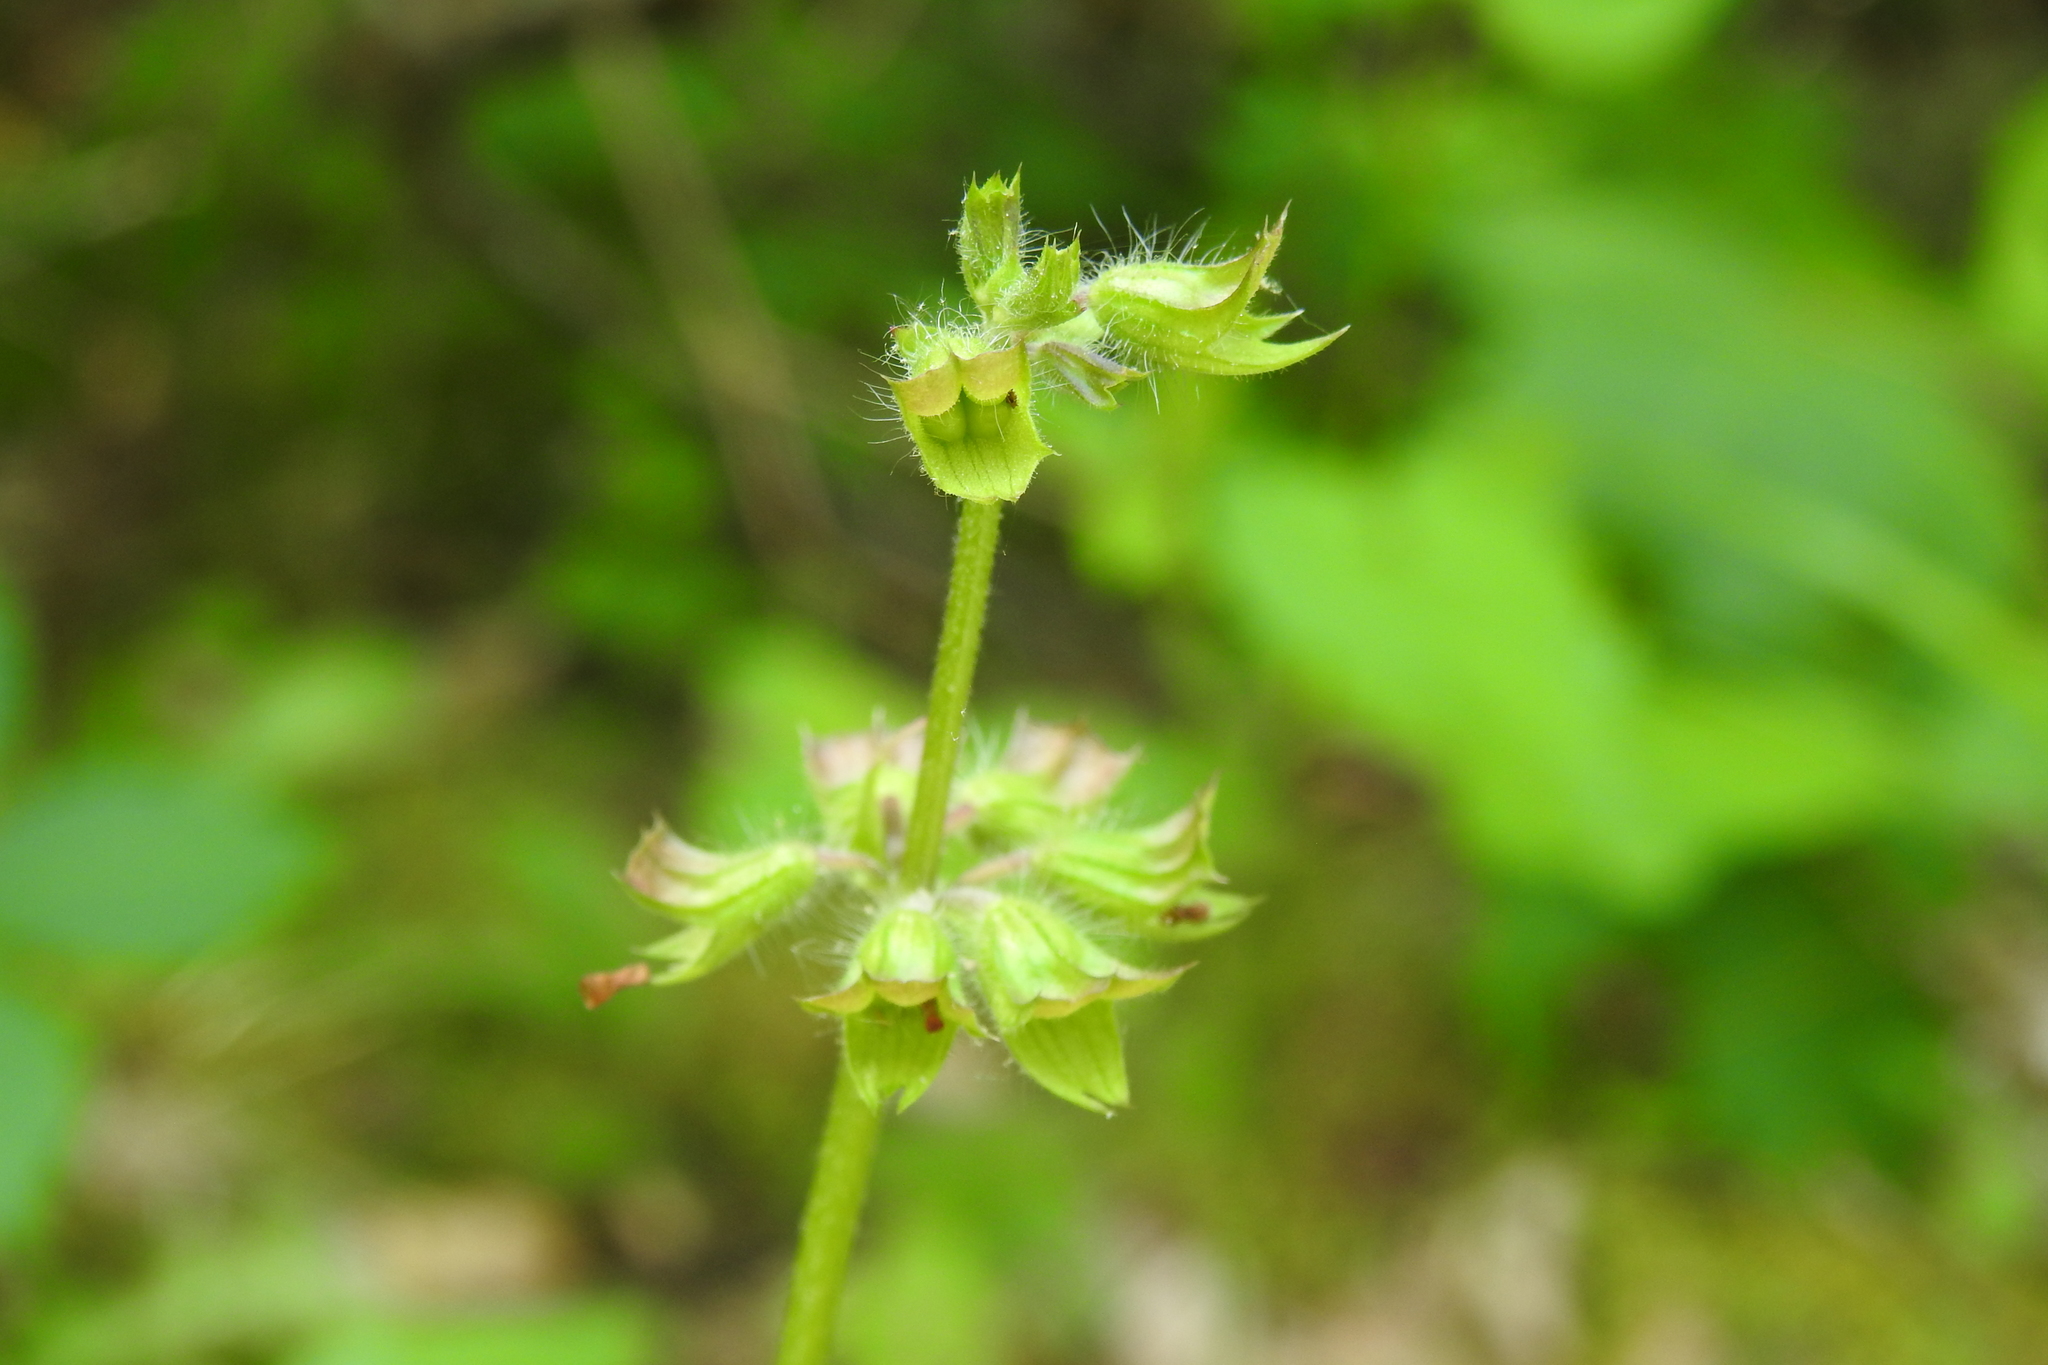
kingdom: Plantae
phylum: Tracheophyta
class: Magnoliopsida
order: Lamiales
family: Lamiaceae
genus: Salvia
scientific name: Salvia lyrata
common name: Cancerweed
